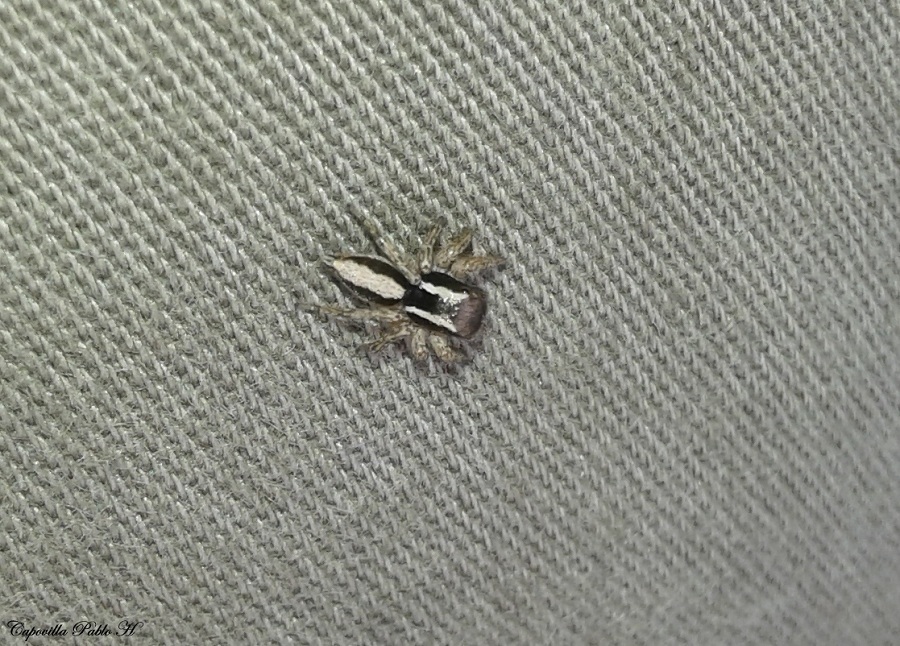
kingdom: Animalia
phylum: Arthropoda
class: Arachnida
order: Araneae
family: Salticidae
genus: Aphirape
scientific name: Aphirape
